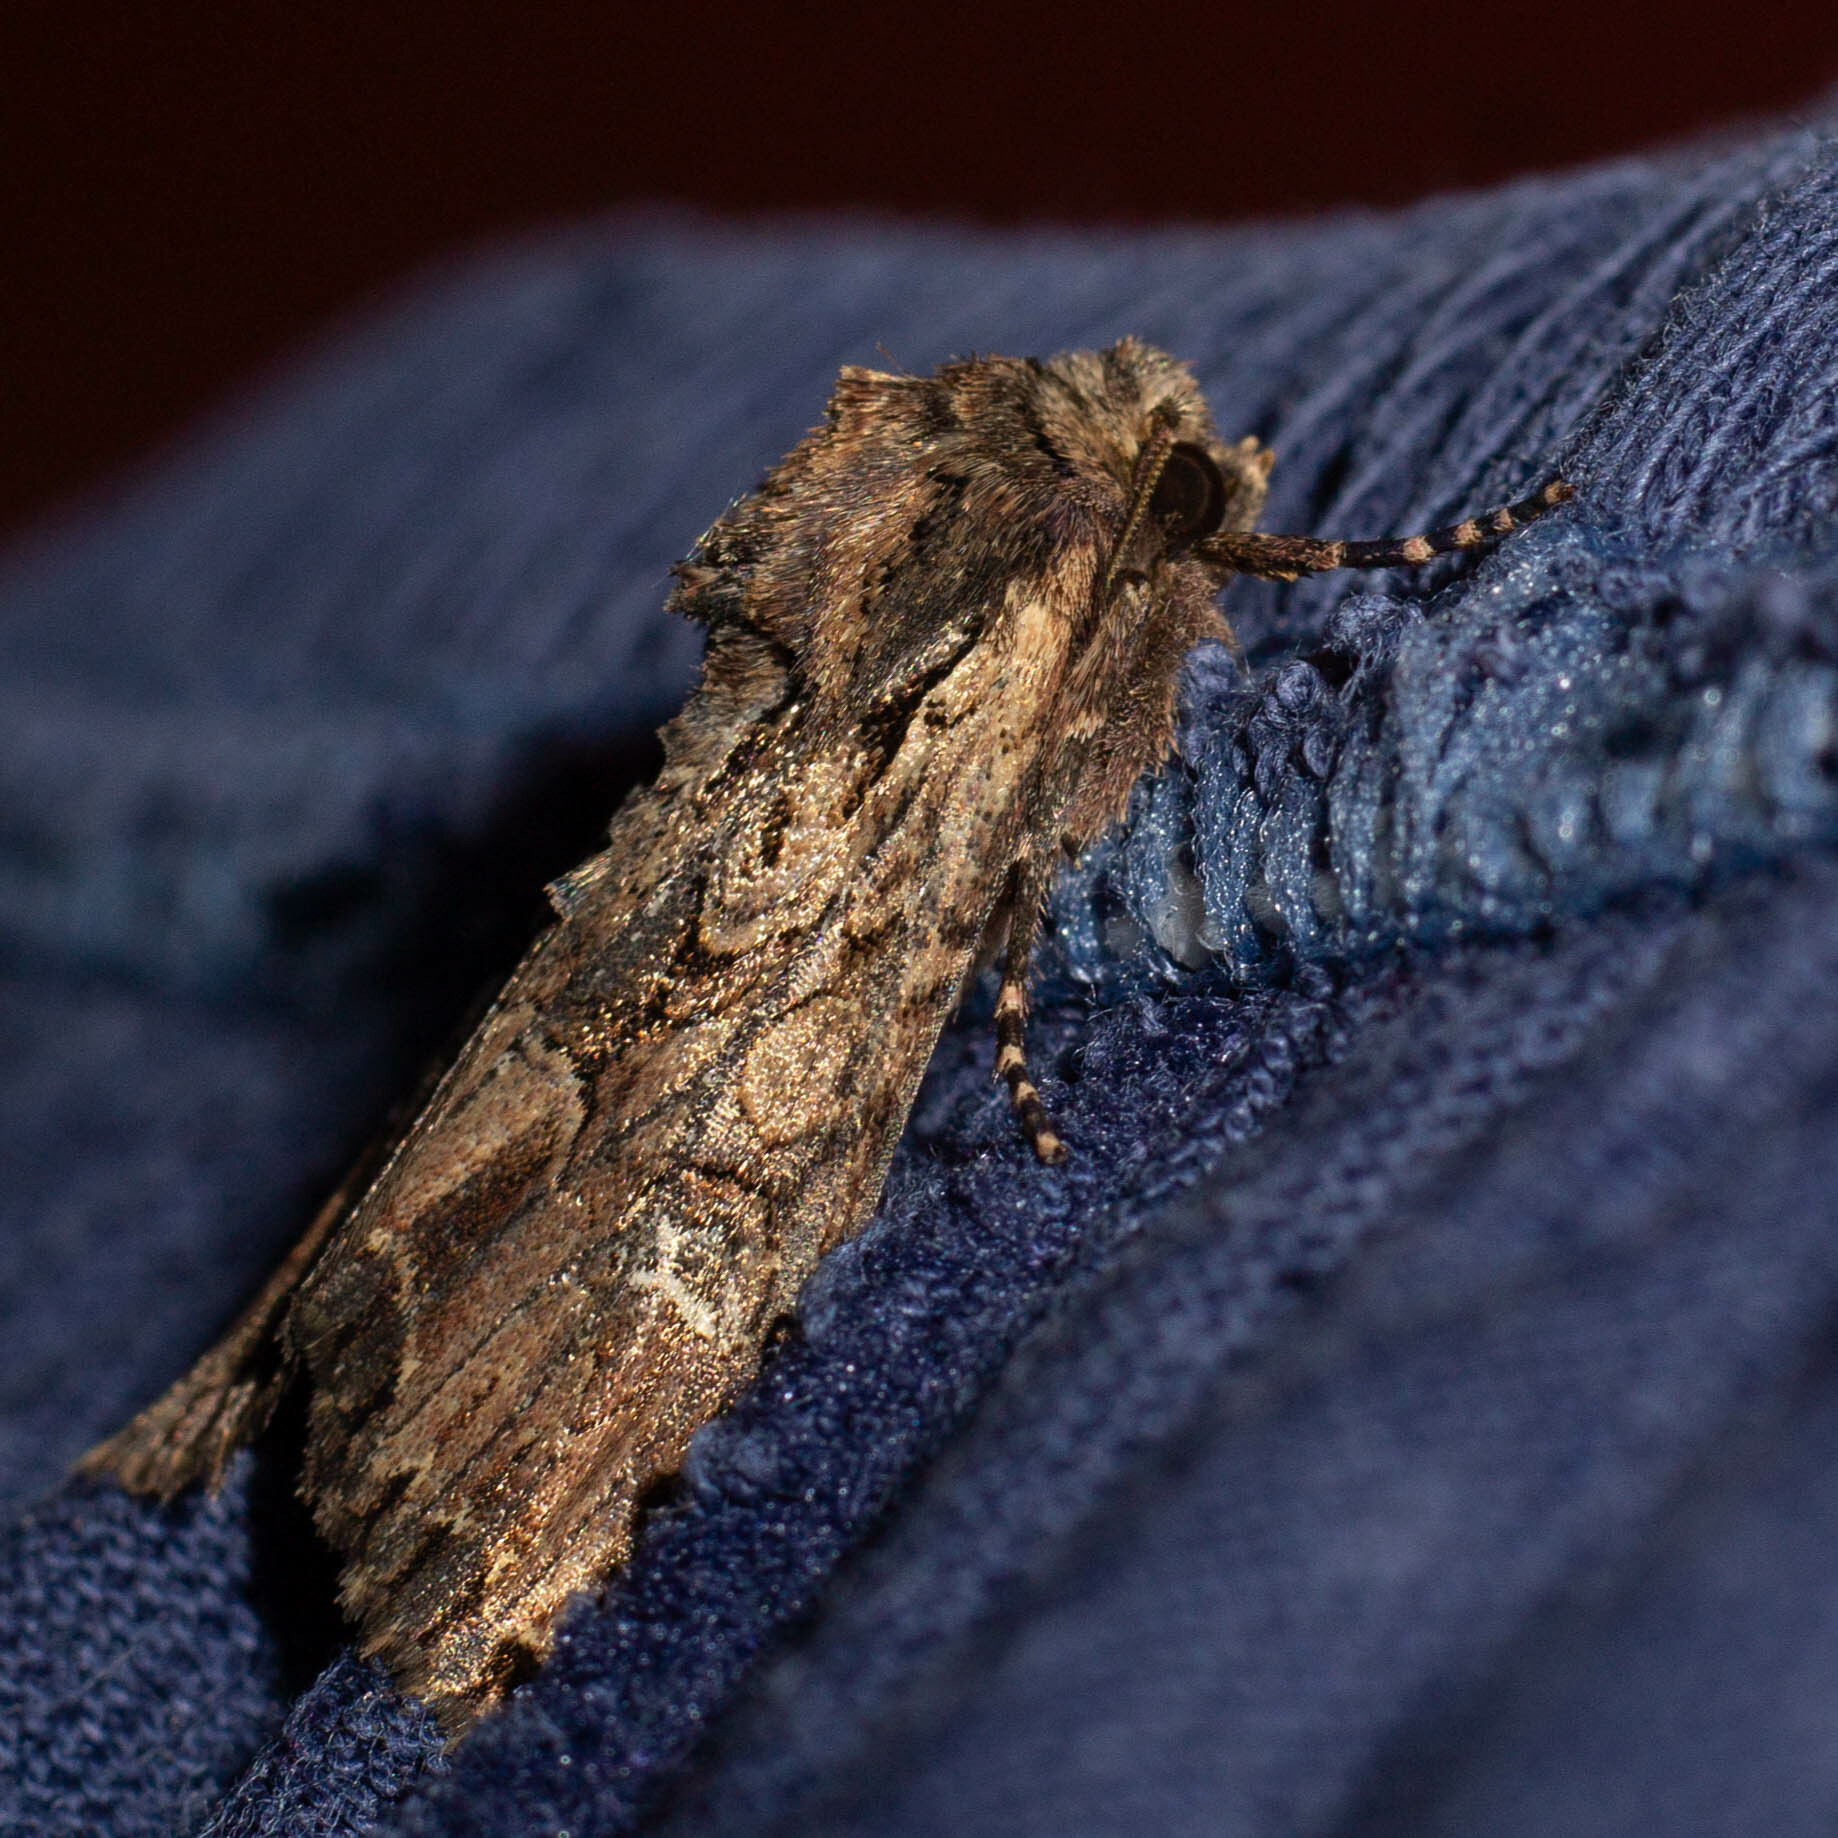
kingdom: Animalia
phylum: Arthropoda
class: Insecta
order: Lepidoptera
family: Noctuidae
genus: Mniotype
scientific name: Mniotype occidentalis
